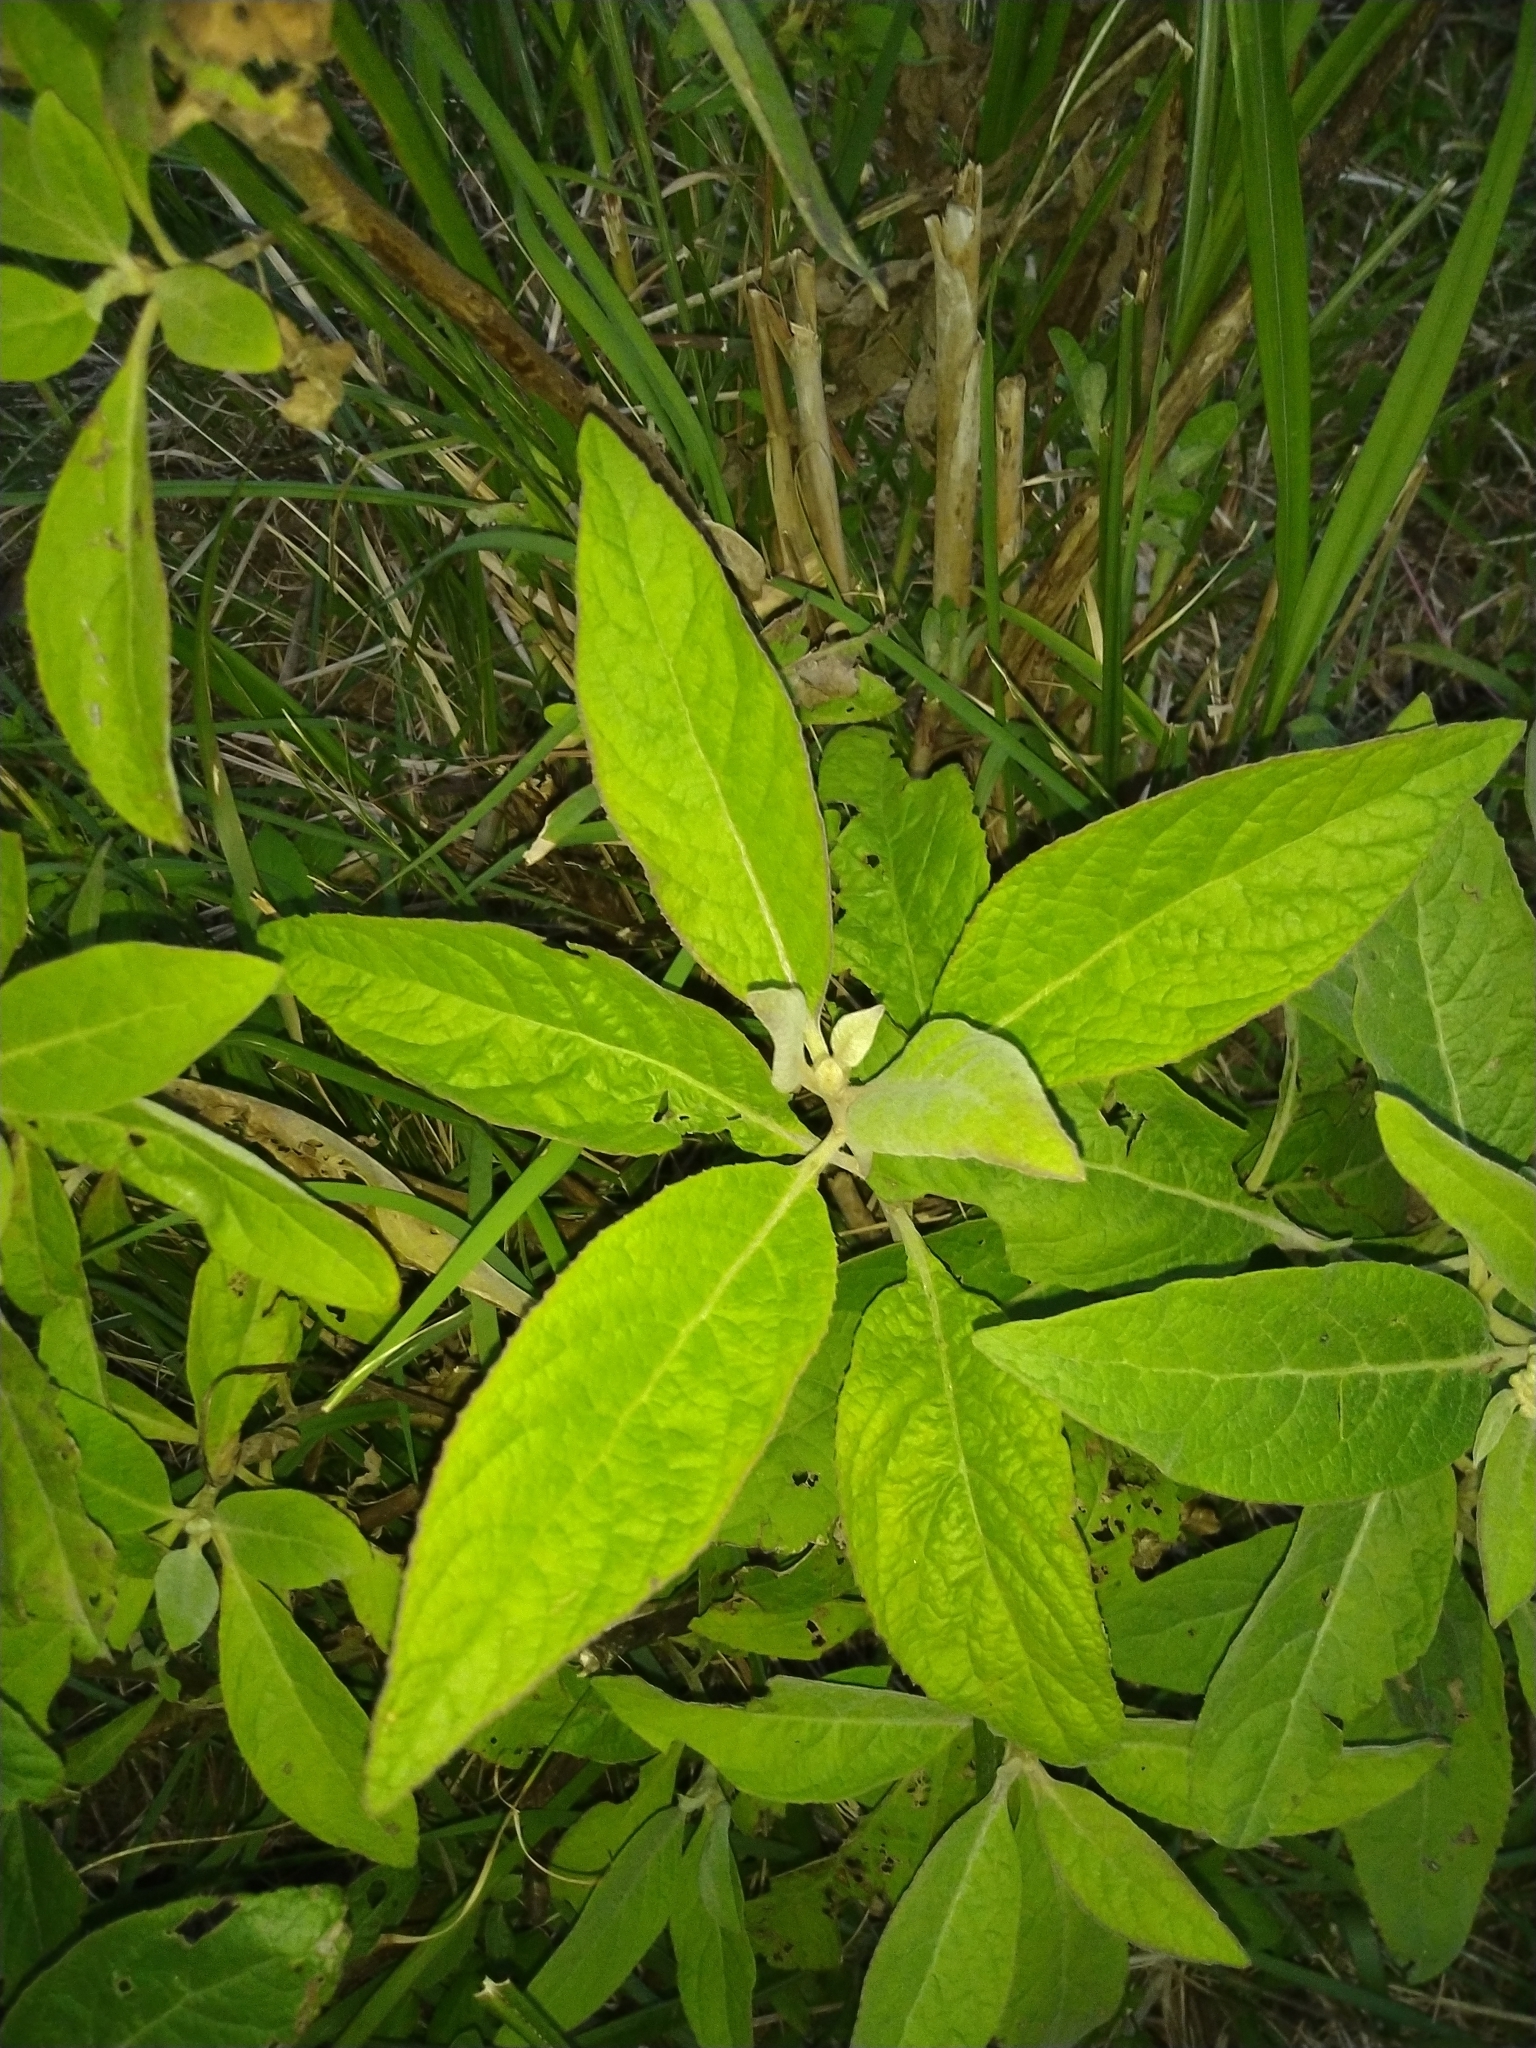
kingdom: Plantae
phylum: Tracheophyta
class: Magnoliopsida
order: Asterales
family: Asteraceae
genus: Pluchea
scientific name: Pluchea carolinensis
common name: Marsh fleabane
